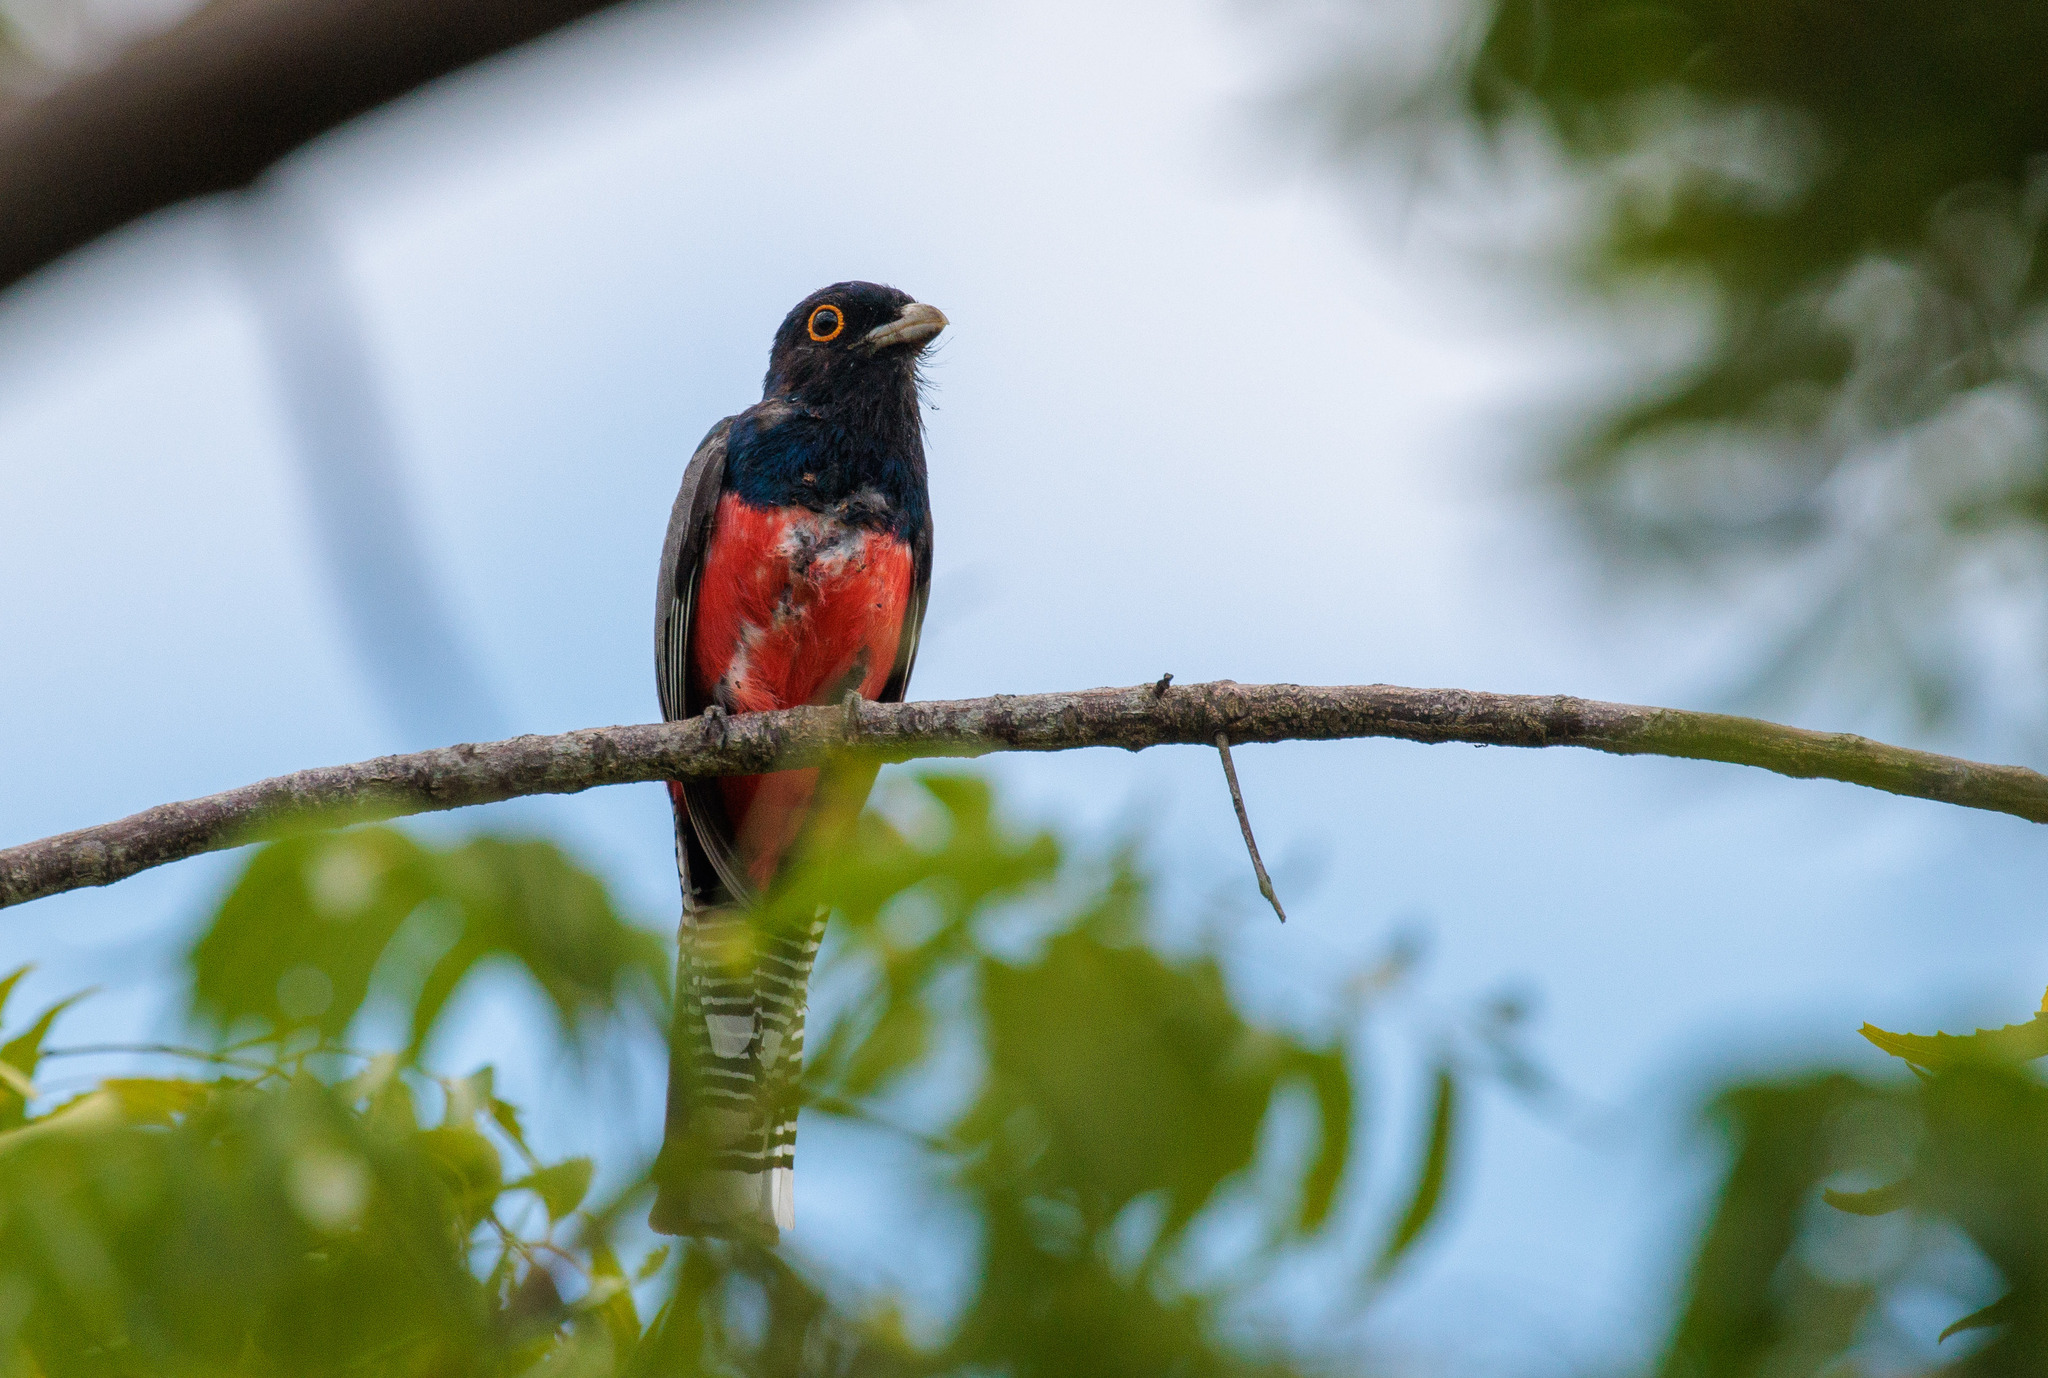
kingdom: Animalia
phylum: Chordata
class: Aves
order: Trogoniformes
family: Trogonidae
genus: Trogon
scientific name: Trogon curucui
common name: Blue-crowned trogon
